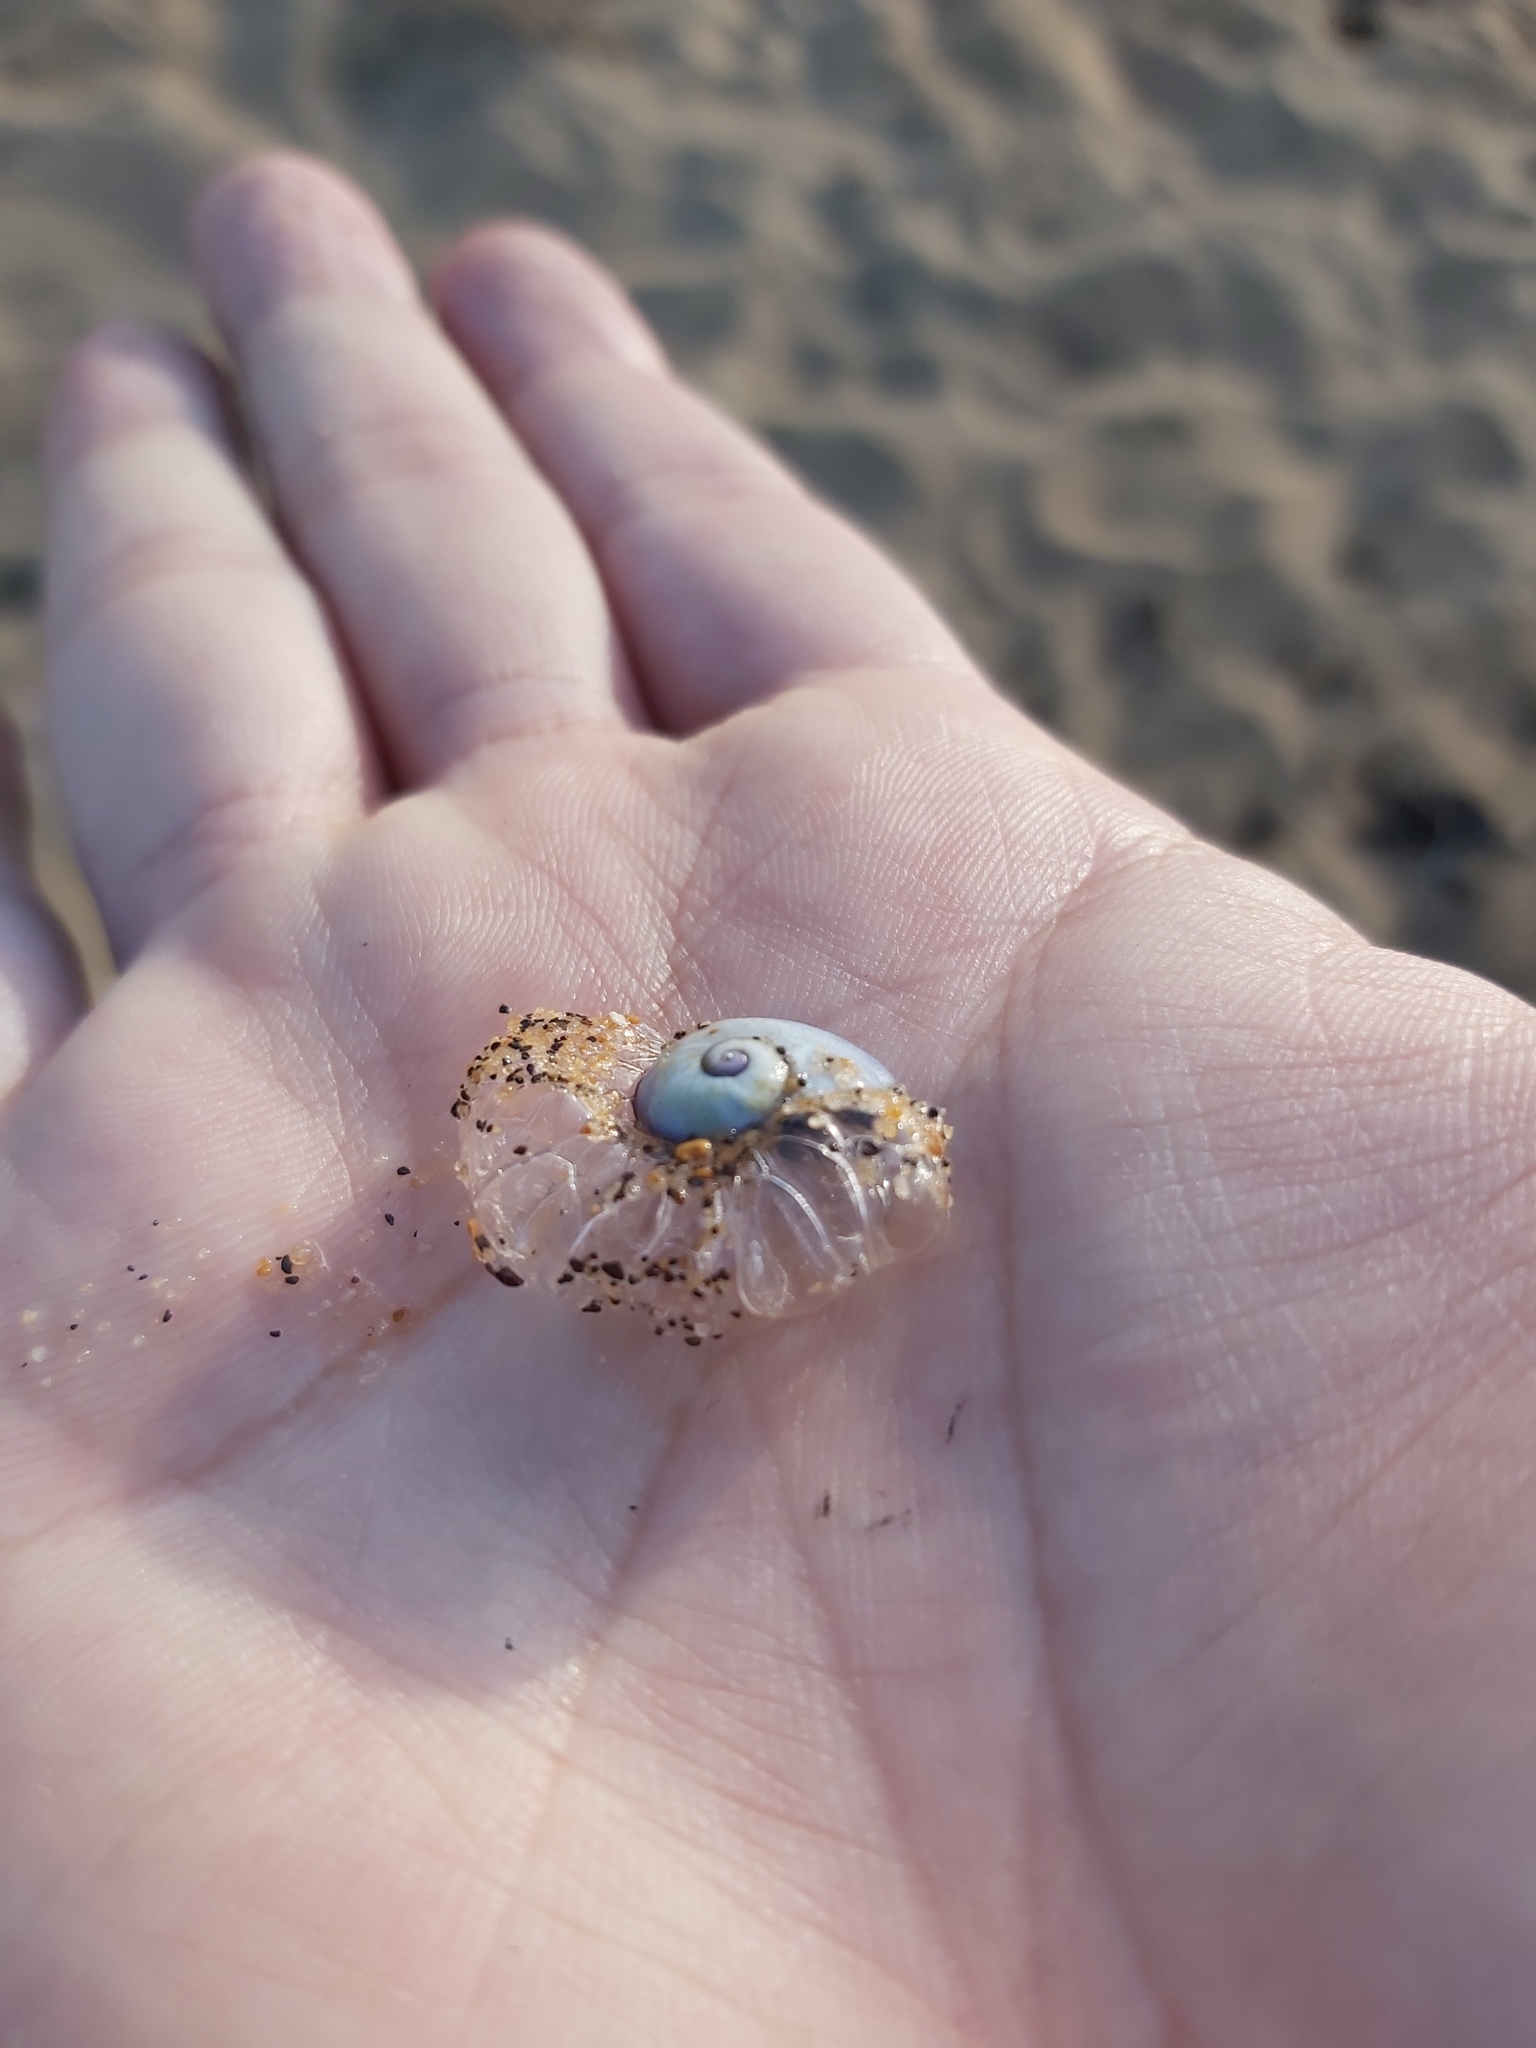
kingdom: Animalia
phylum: Mollusca
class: Gastropoda
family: Epitoniidae
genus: Janthina
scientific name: Janthina janthina
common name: Common janthina
